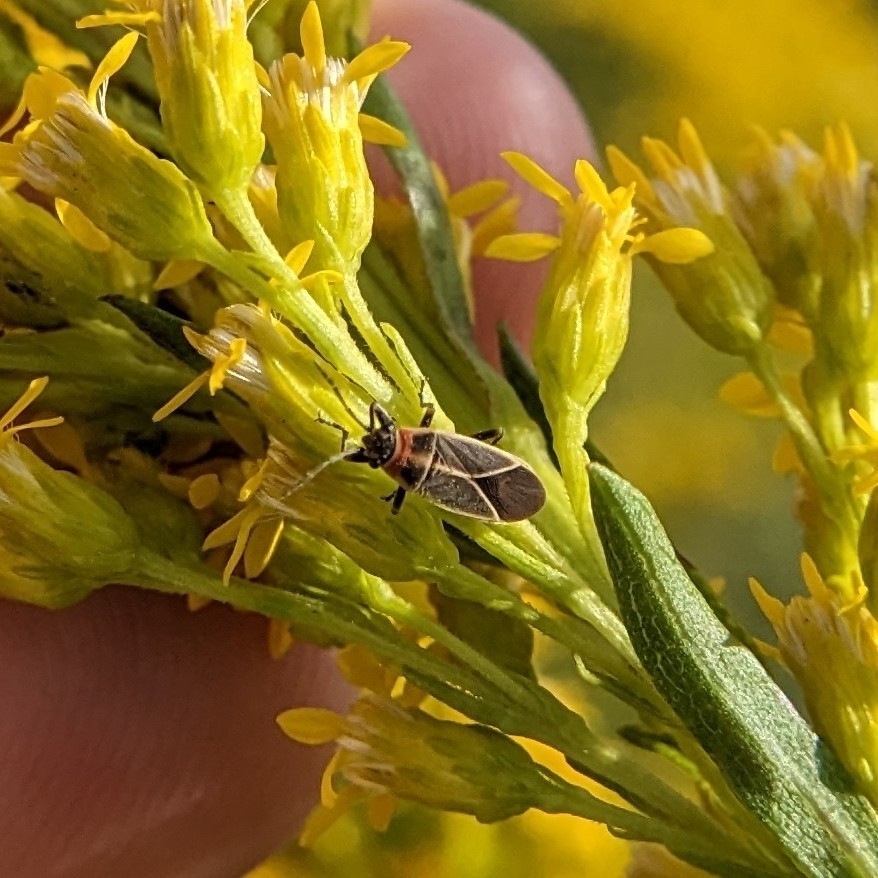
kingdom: Animalia
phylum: Arthropoda
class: Insecta
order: Hemiptera
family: Lygaeidae
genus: Ochrimnus
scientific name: Ochrimnus mimulus
